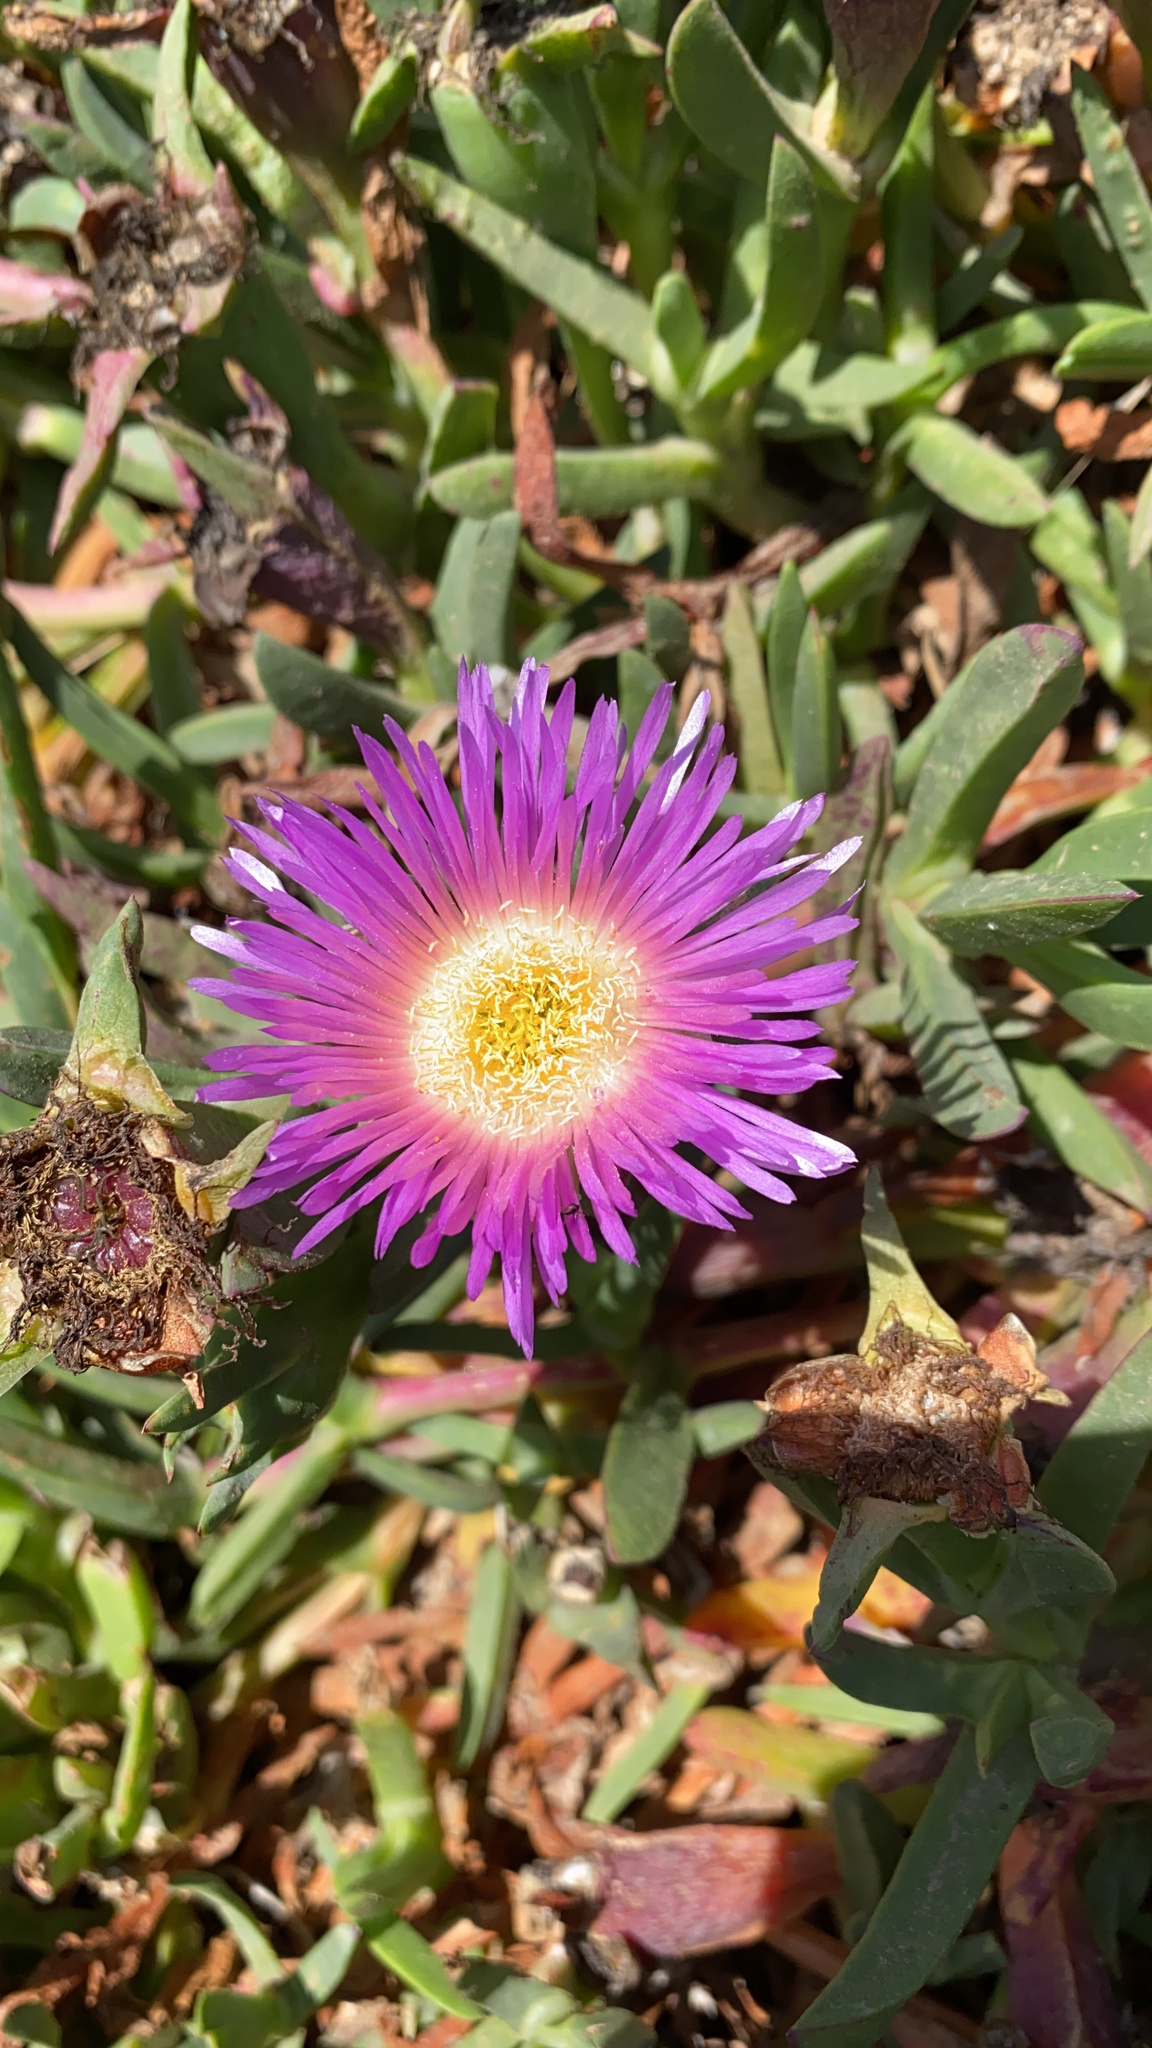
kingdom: Plantae
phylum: Tracheophyta
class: Magnoliopsida
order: Caryophyllales
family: Aizoaceae
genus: Carpobrotus
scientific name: Carpobrotus chilensis
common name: Sea fig
